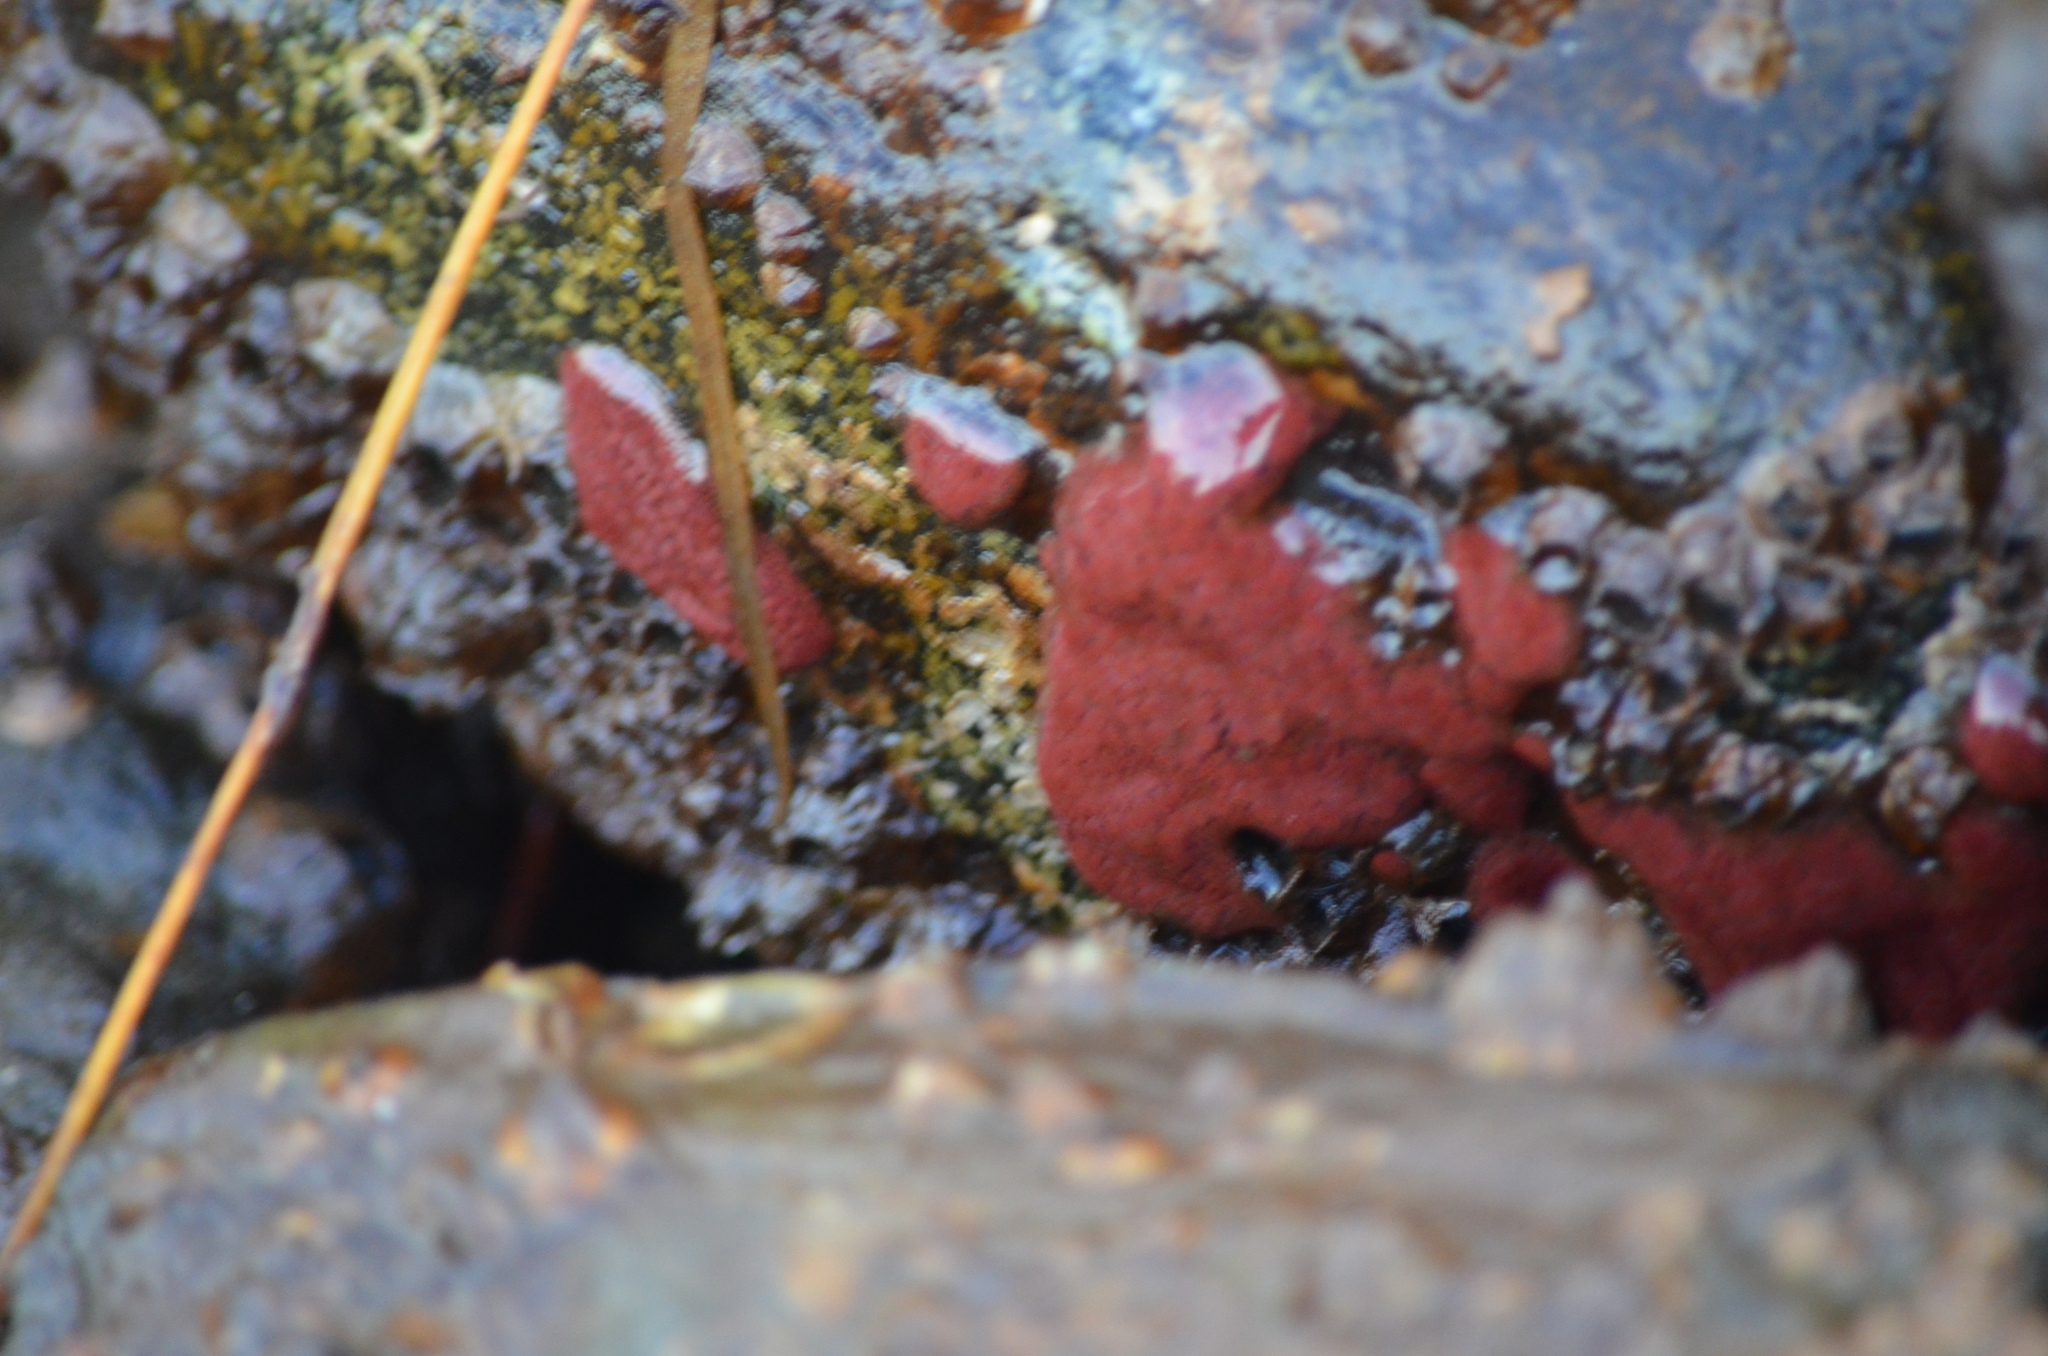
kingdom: Animalia
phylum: Chordata
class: Ascidiacea
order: Stolidobranchia
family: Styelidae
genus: Botrylloides
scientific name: Botrylloides violaceus
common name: Colonial sea squirt
